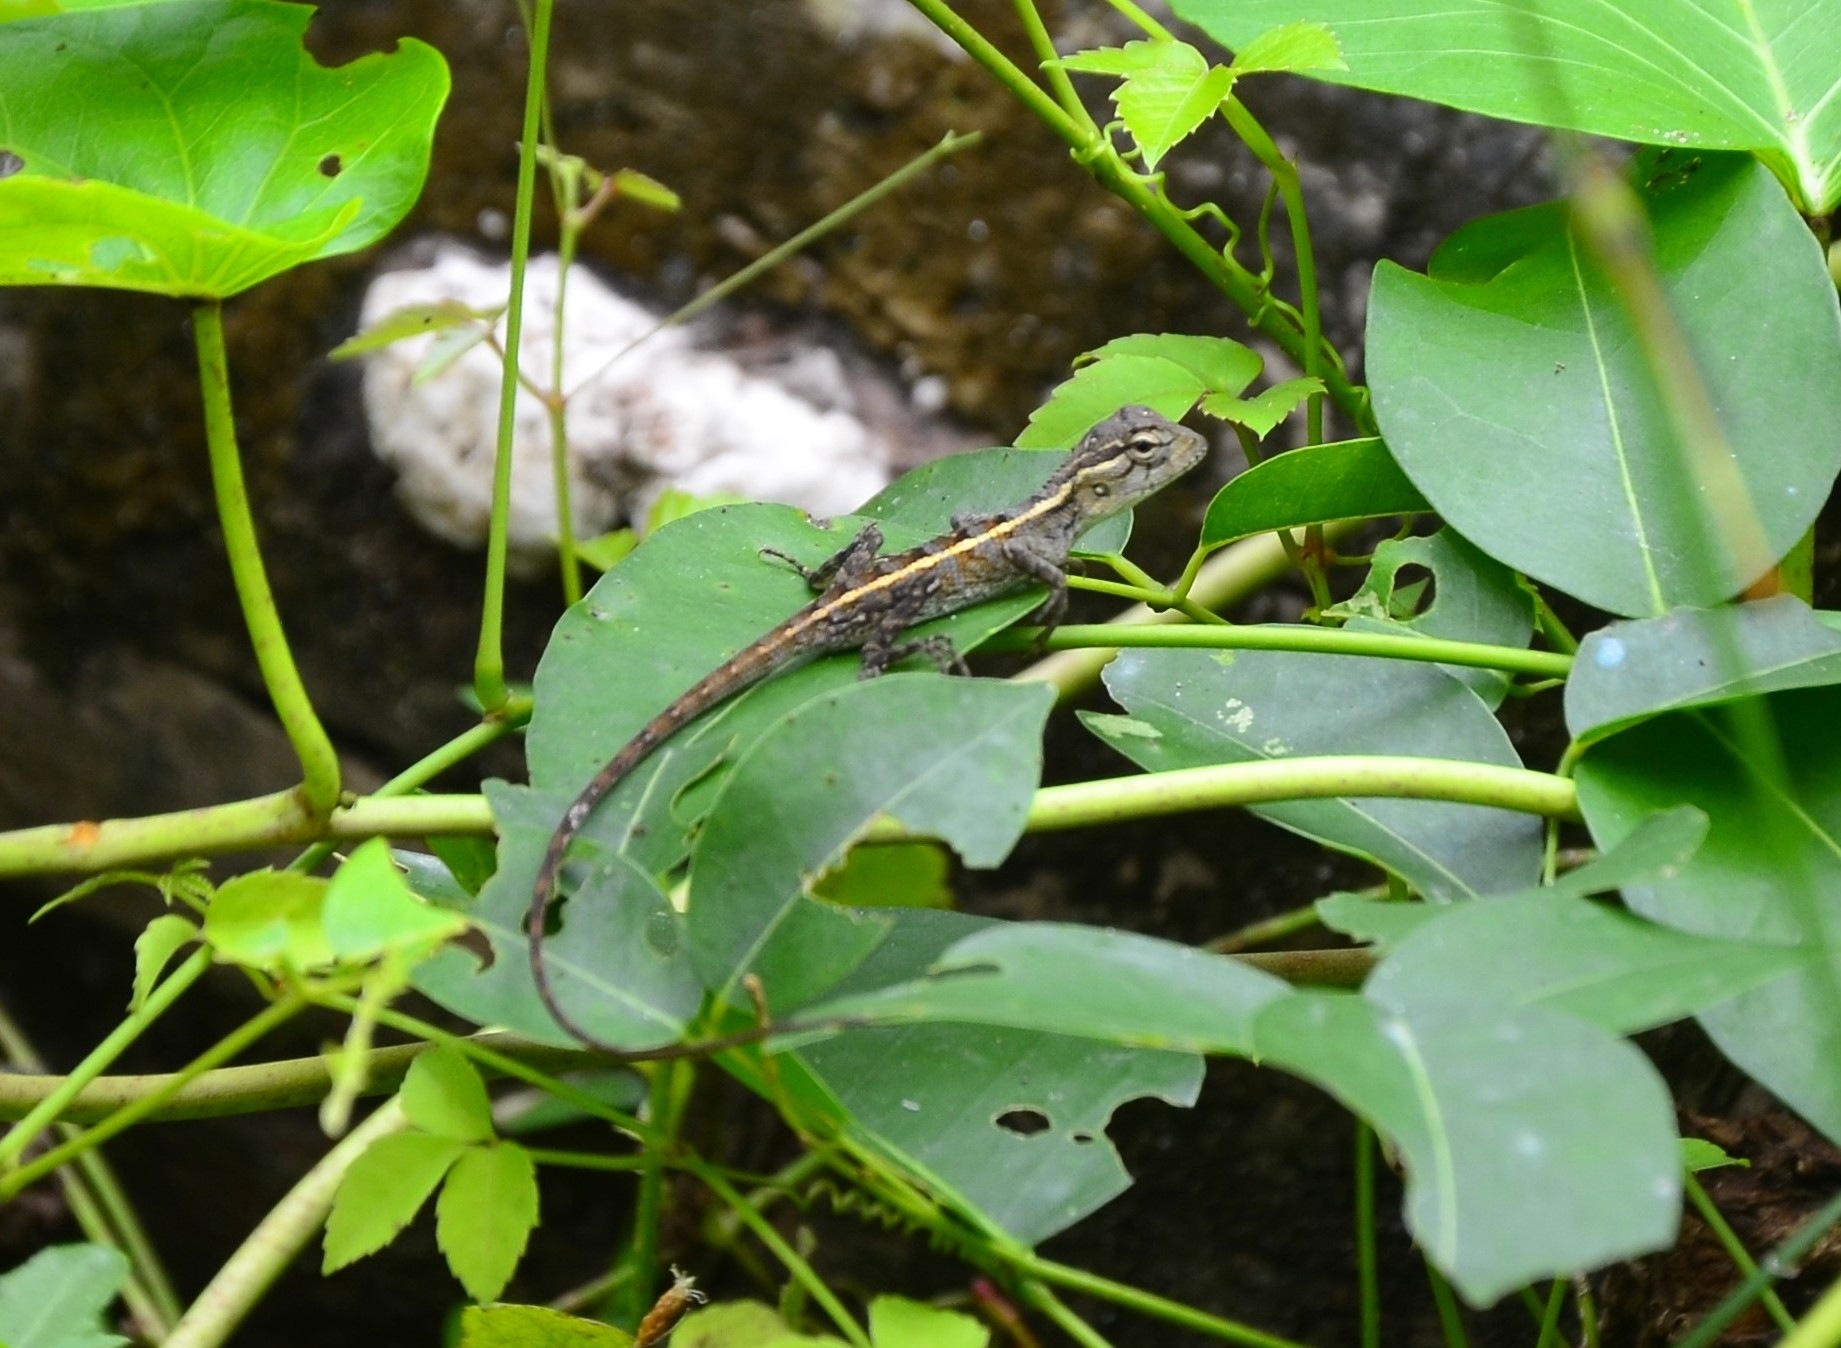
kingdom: Animalia
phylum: Chordata
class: Squamata
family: Agamidae
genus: Calotes
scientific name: Calotes versicolor
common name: Oriental garden lizard
